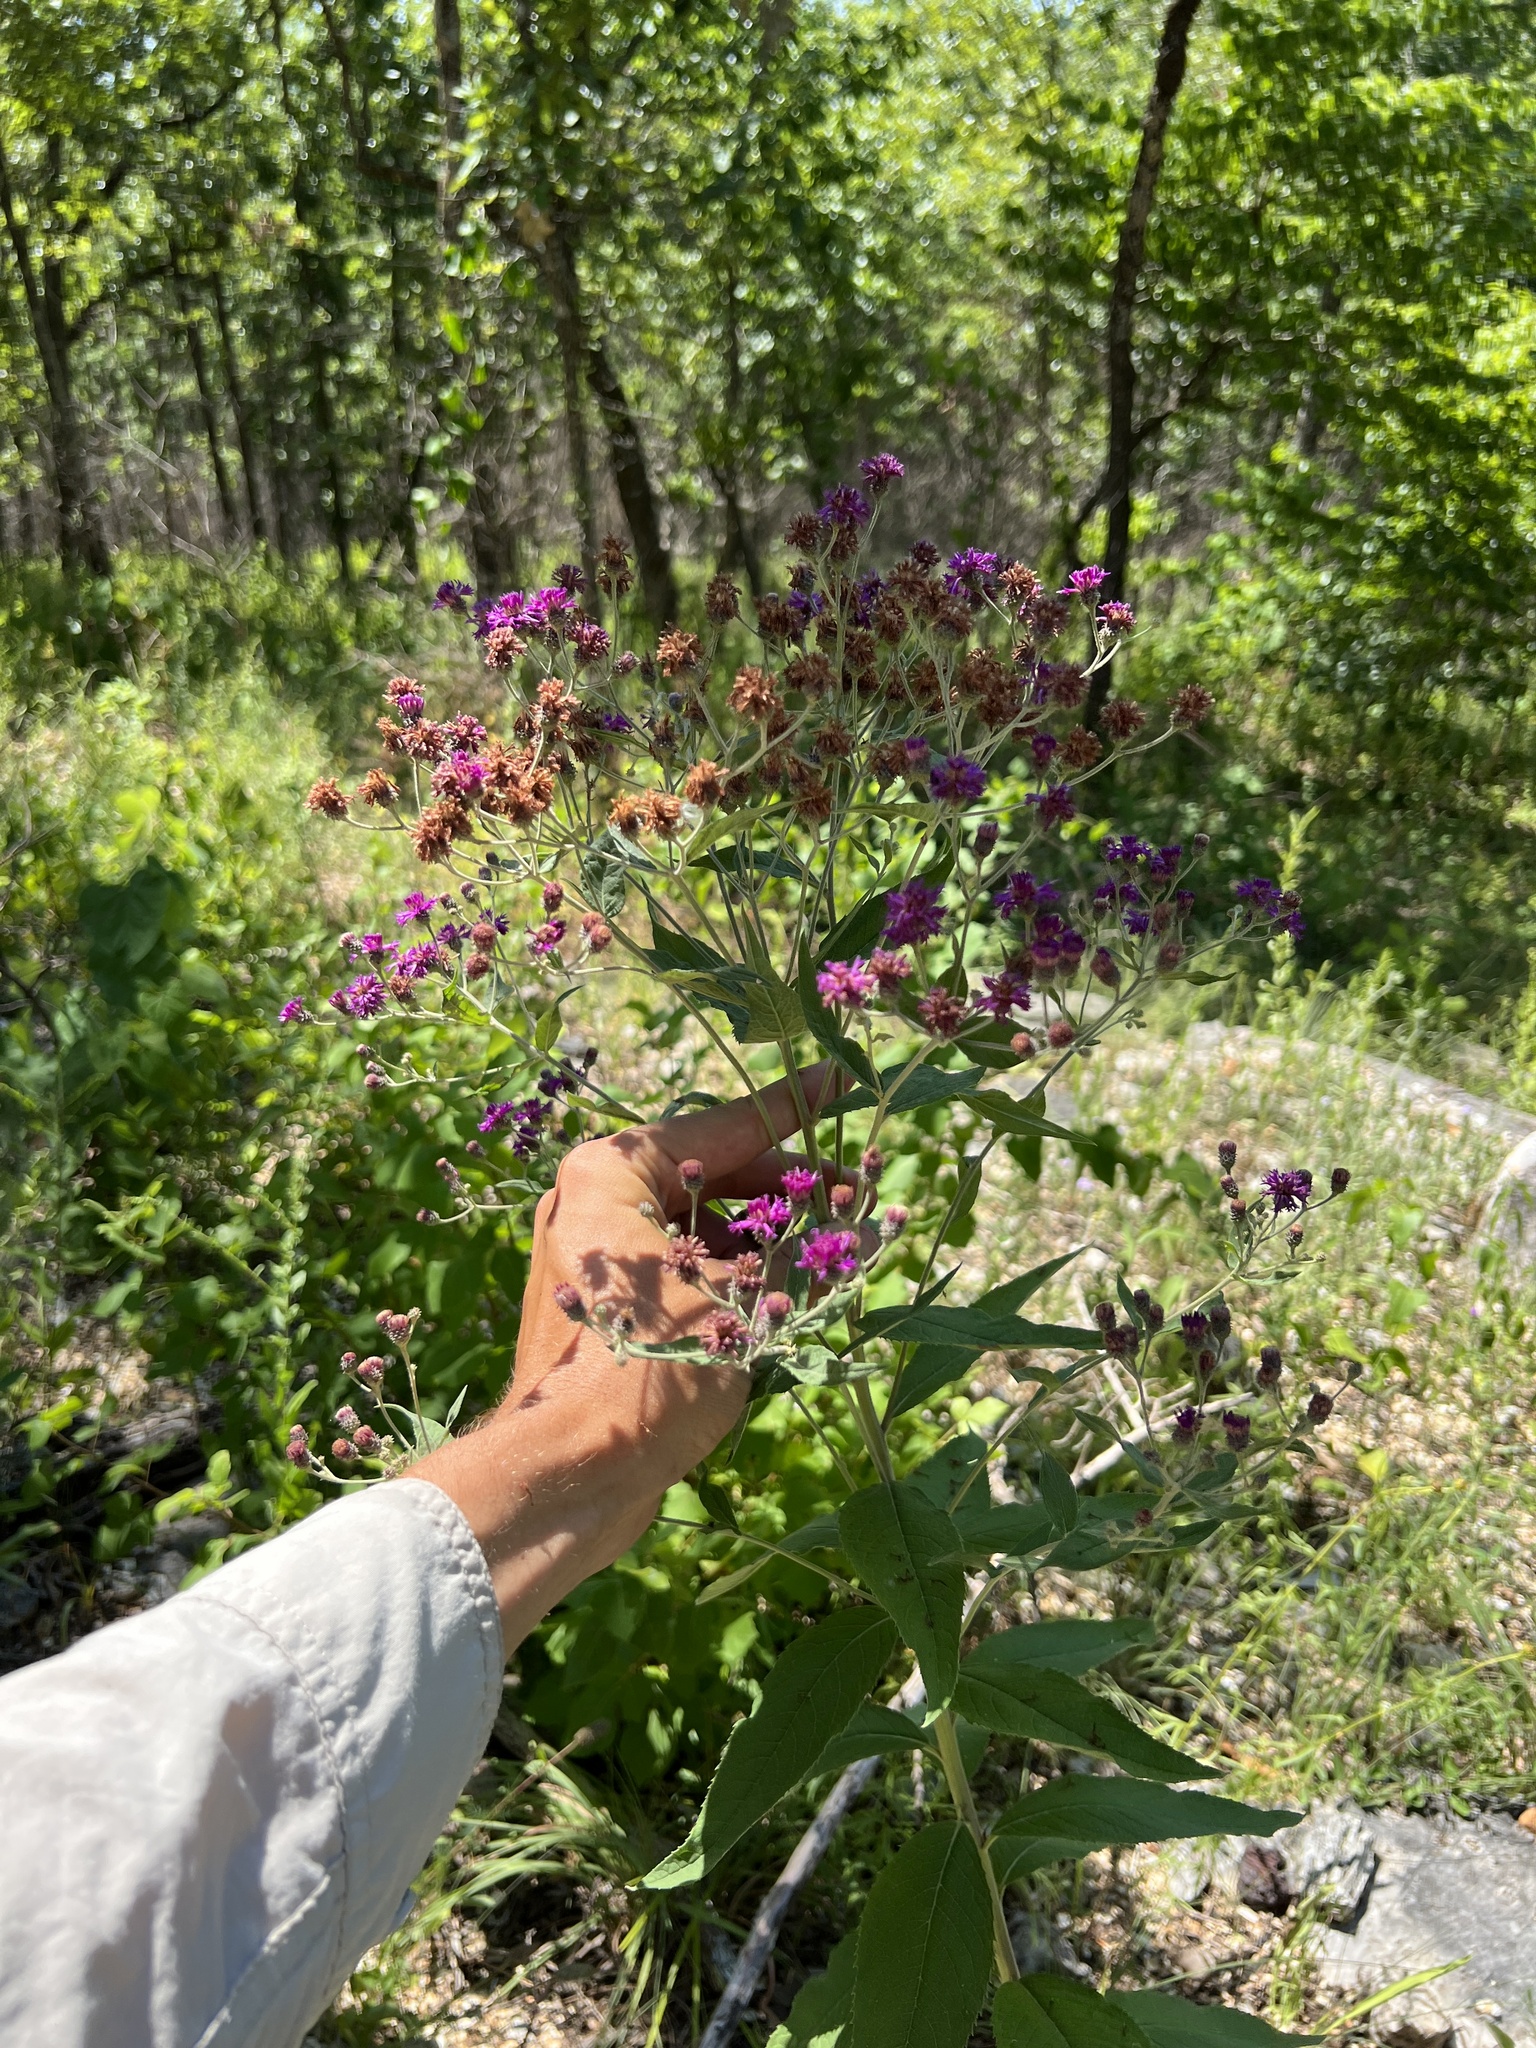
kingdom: Plantae
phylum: Tracheophyta
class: Magnoliopsida
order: Asterales
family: Asteraceae
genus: Vernonia
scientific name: Vernonia baldwinii
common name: Western ironweed
